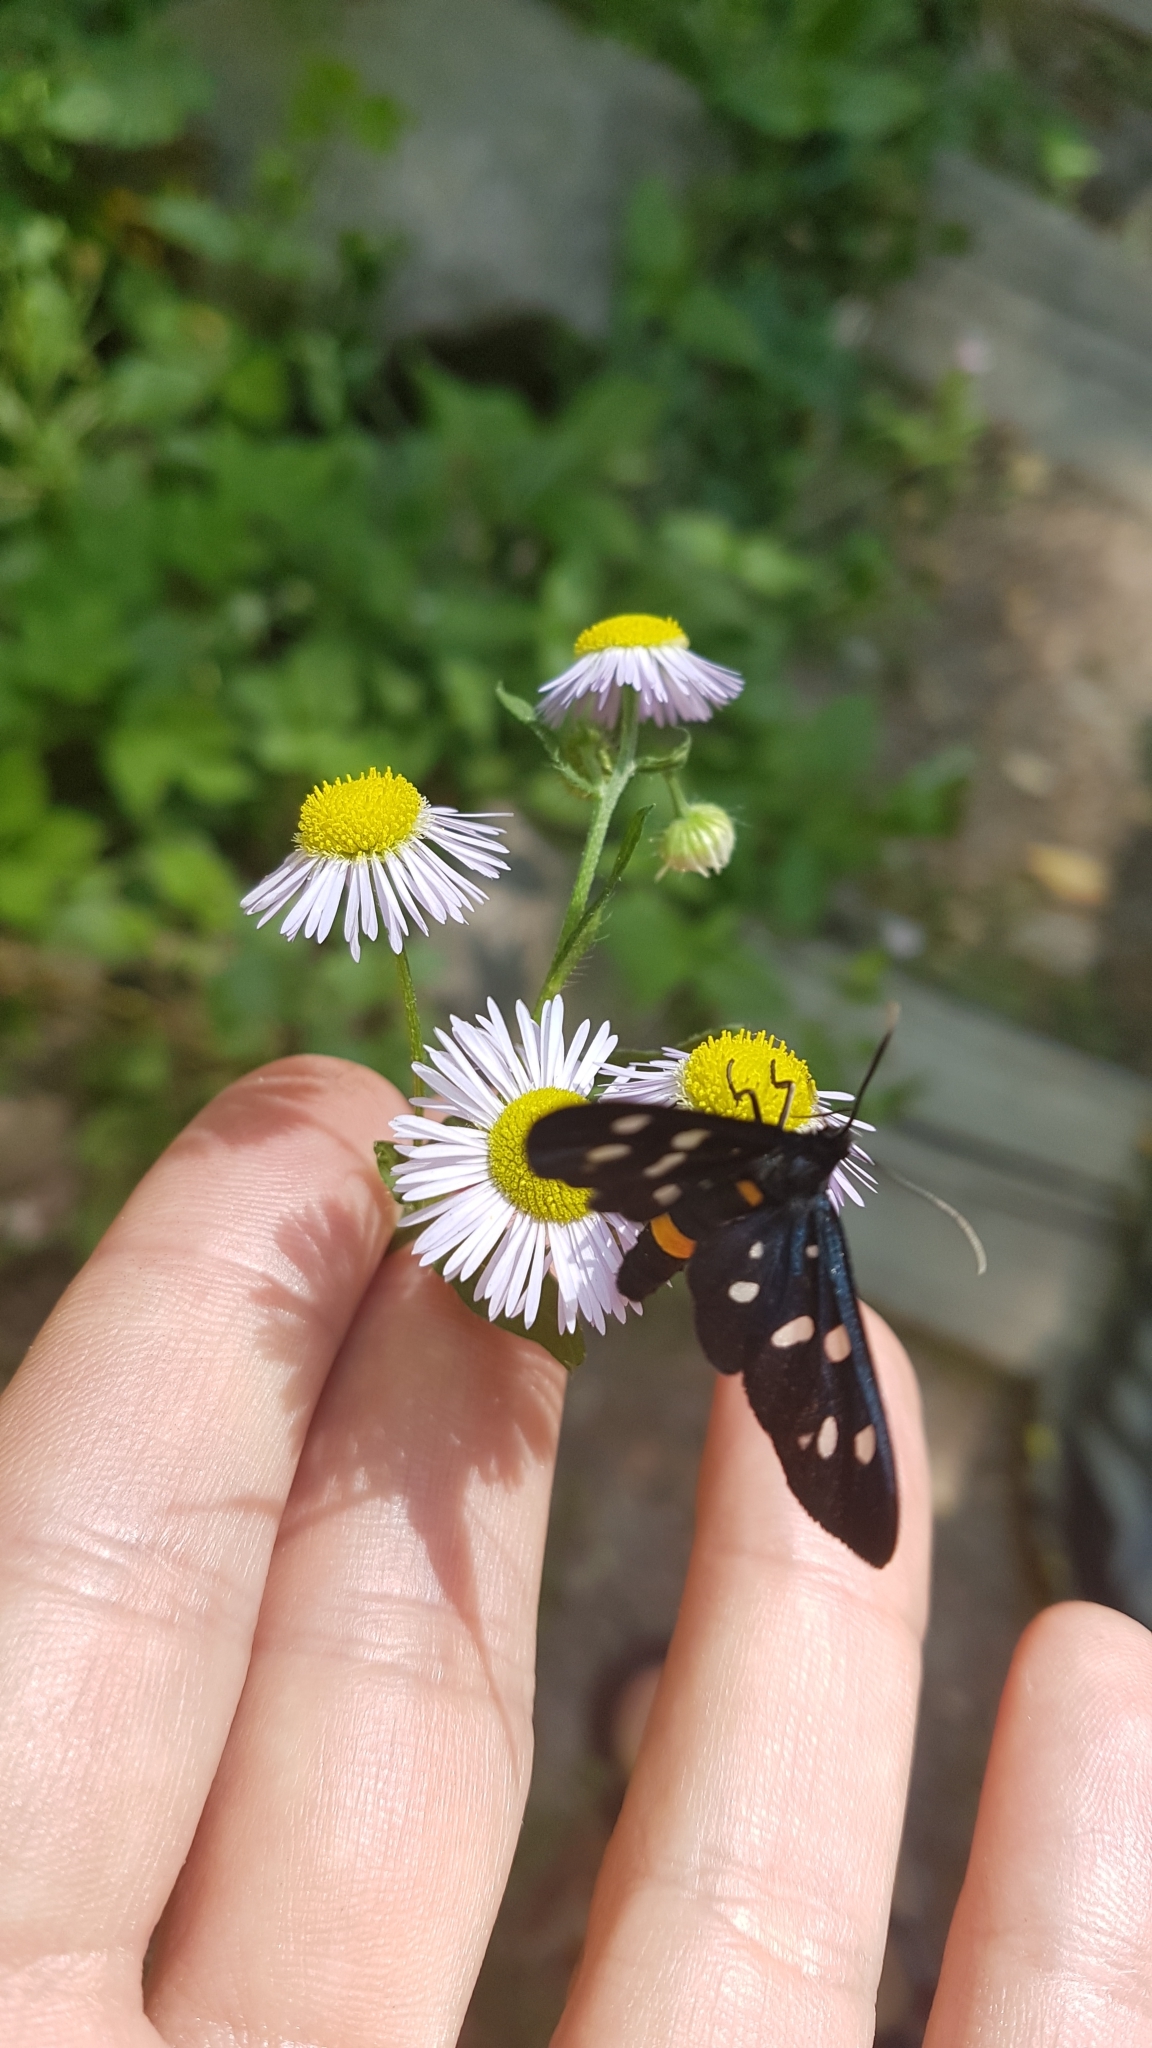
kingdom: Animalia
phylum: Arthropoda
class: Insecta
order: Lepidoptera
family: Erebidae
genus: Amata
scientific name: Amata phegea
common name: Nine-spotted
